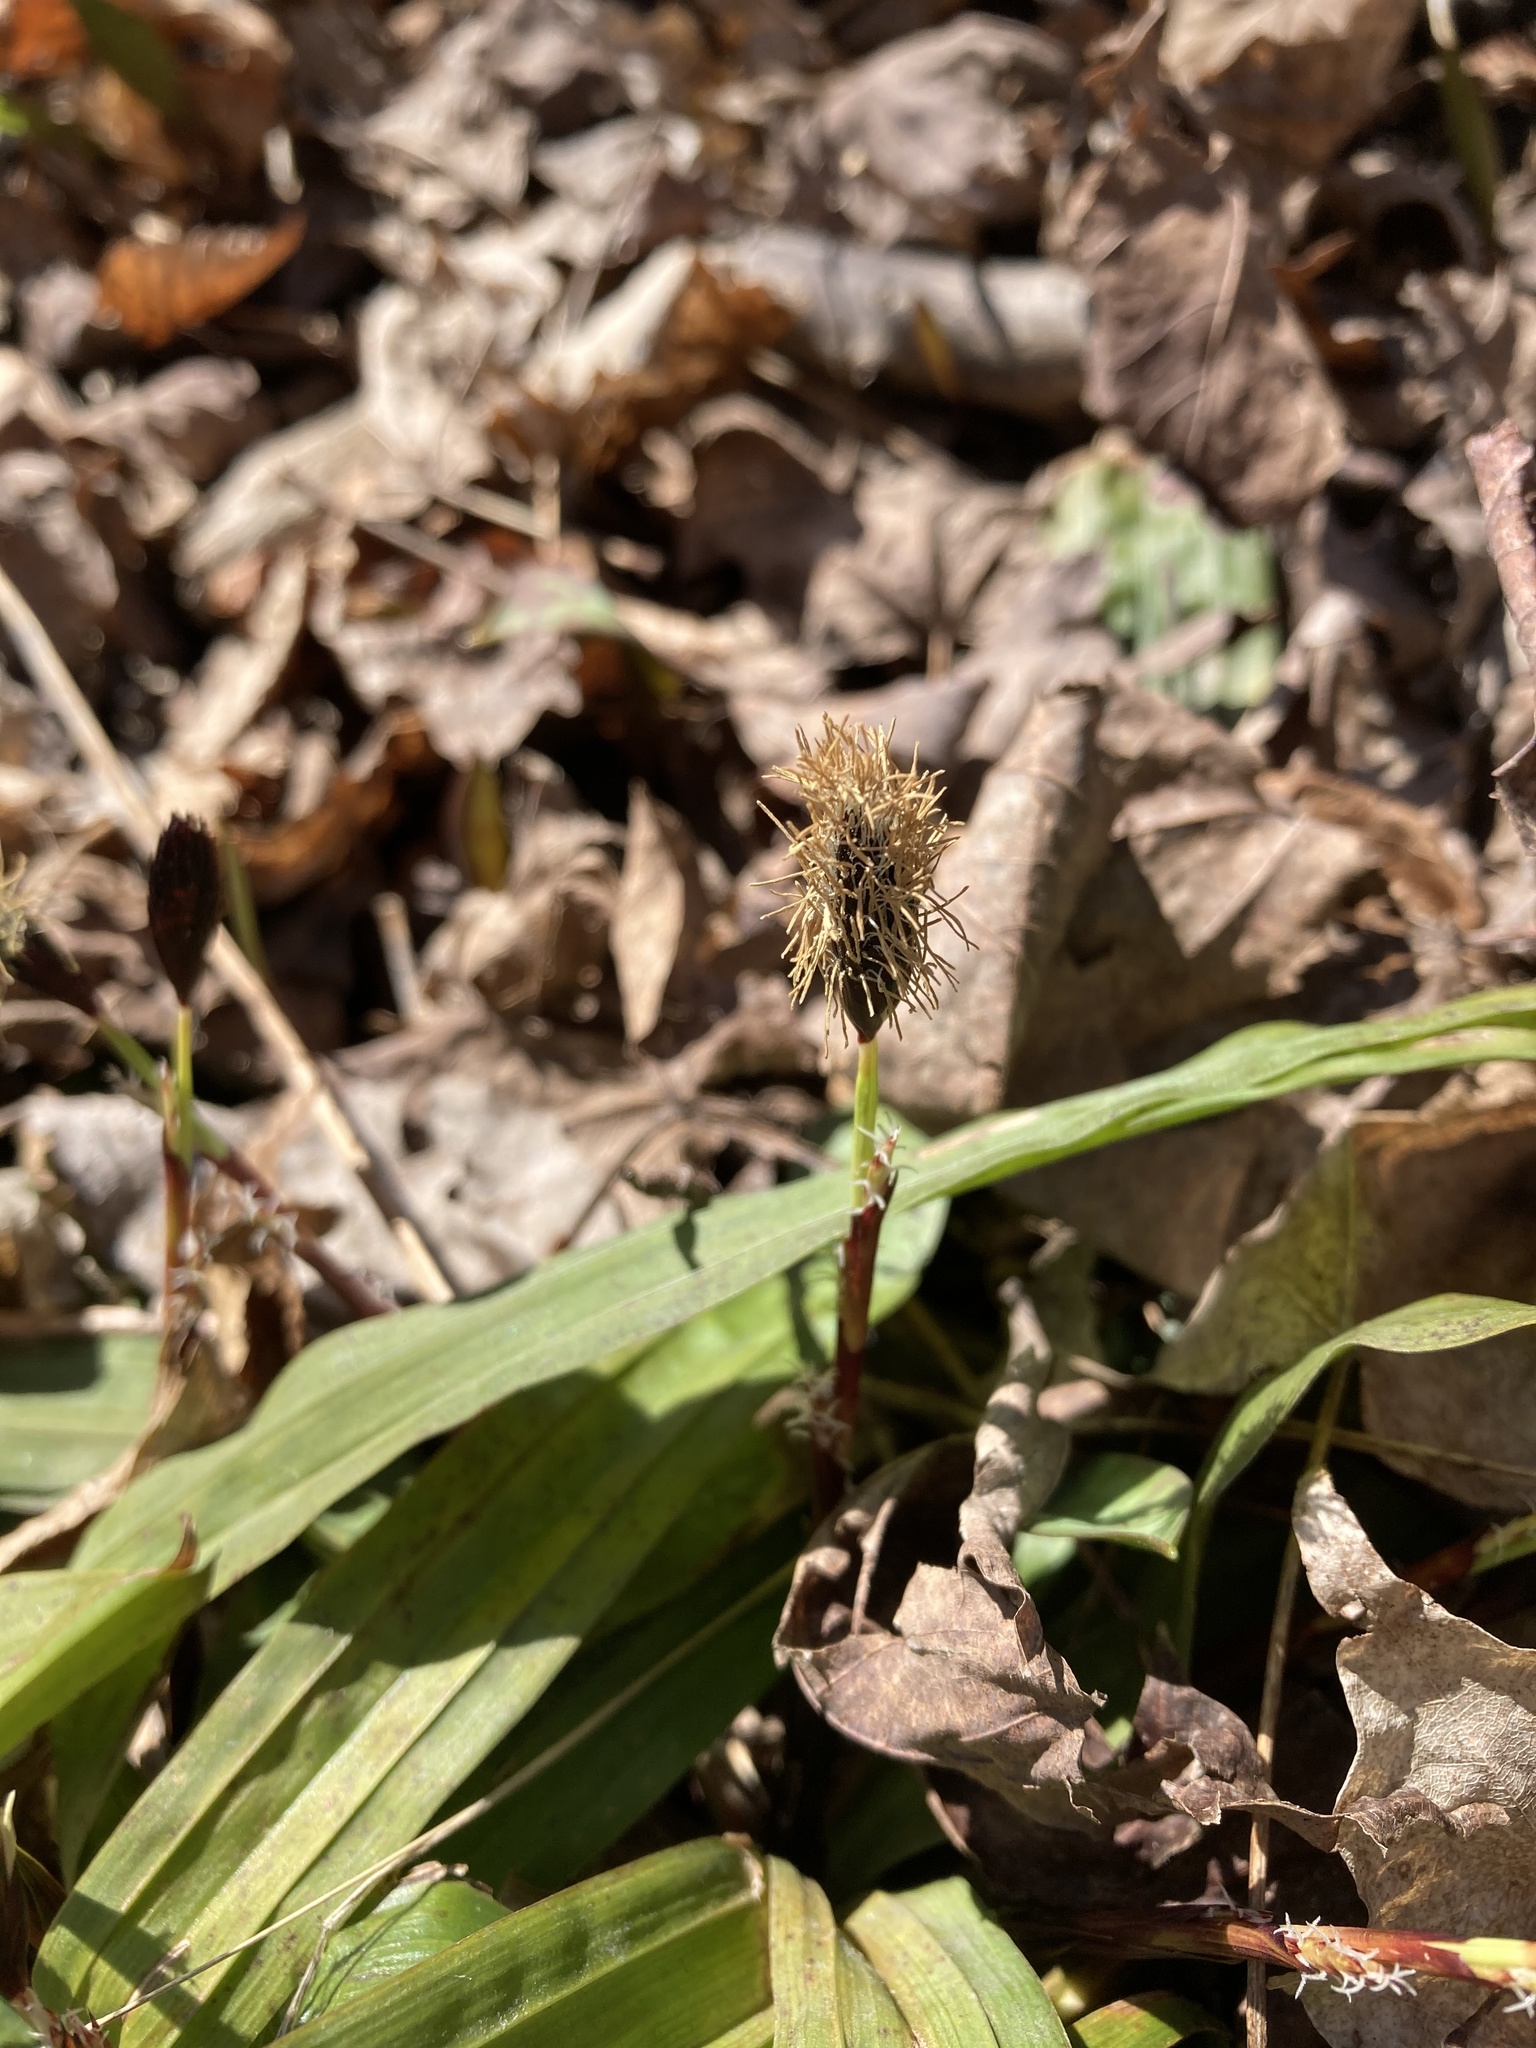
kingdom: Plantae
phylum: Tracheophyta
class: Liliopsida
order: Poales
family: Cyperaceae
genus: Carex
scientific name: Carex plantaginea
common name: Plantain-leaved sedge
